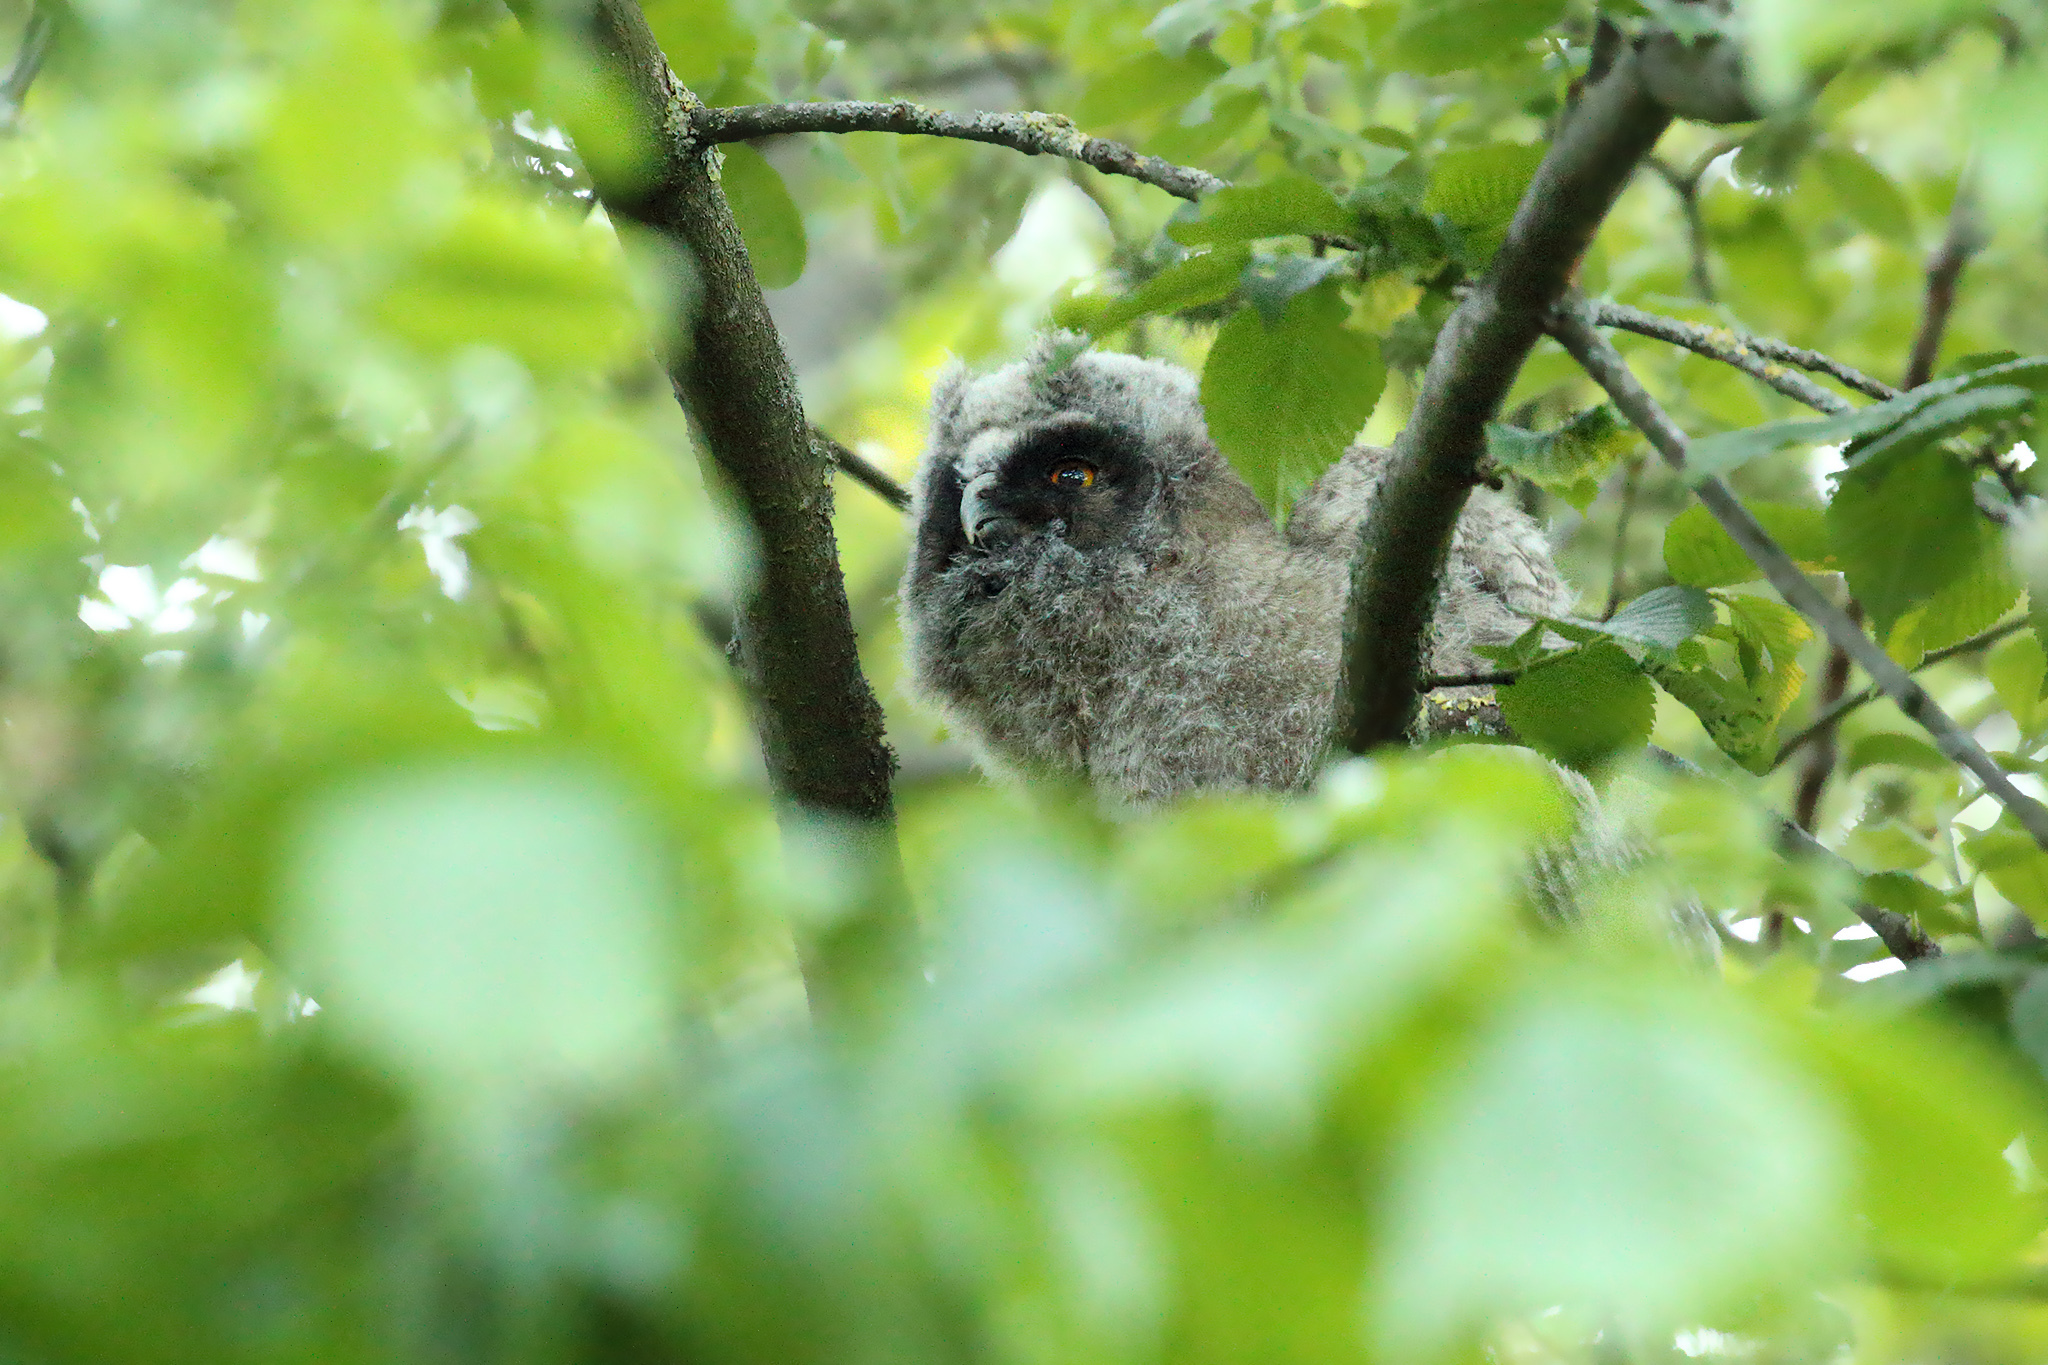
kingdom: Animalia
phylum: Chordata
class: Aves
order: Strigiformes
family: Strigidae
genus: Asio
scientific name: Asio otus
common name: Long-eared owl
